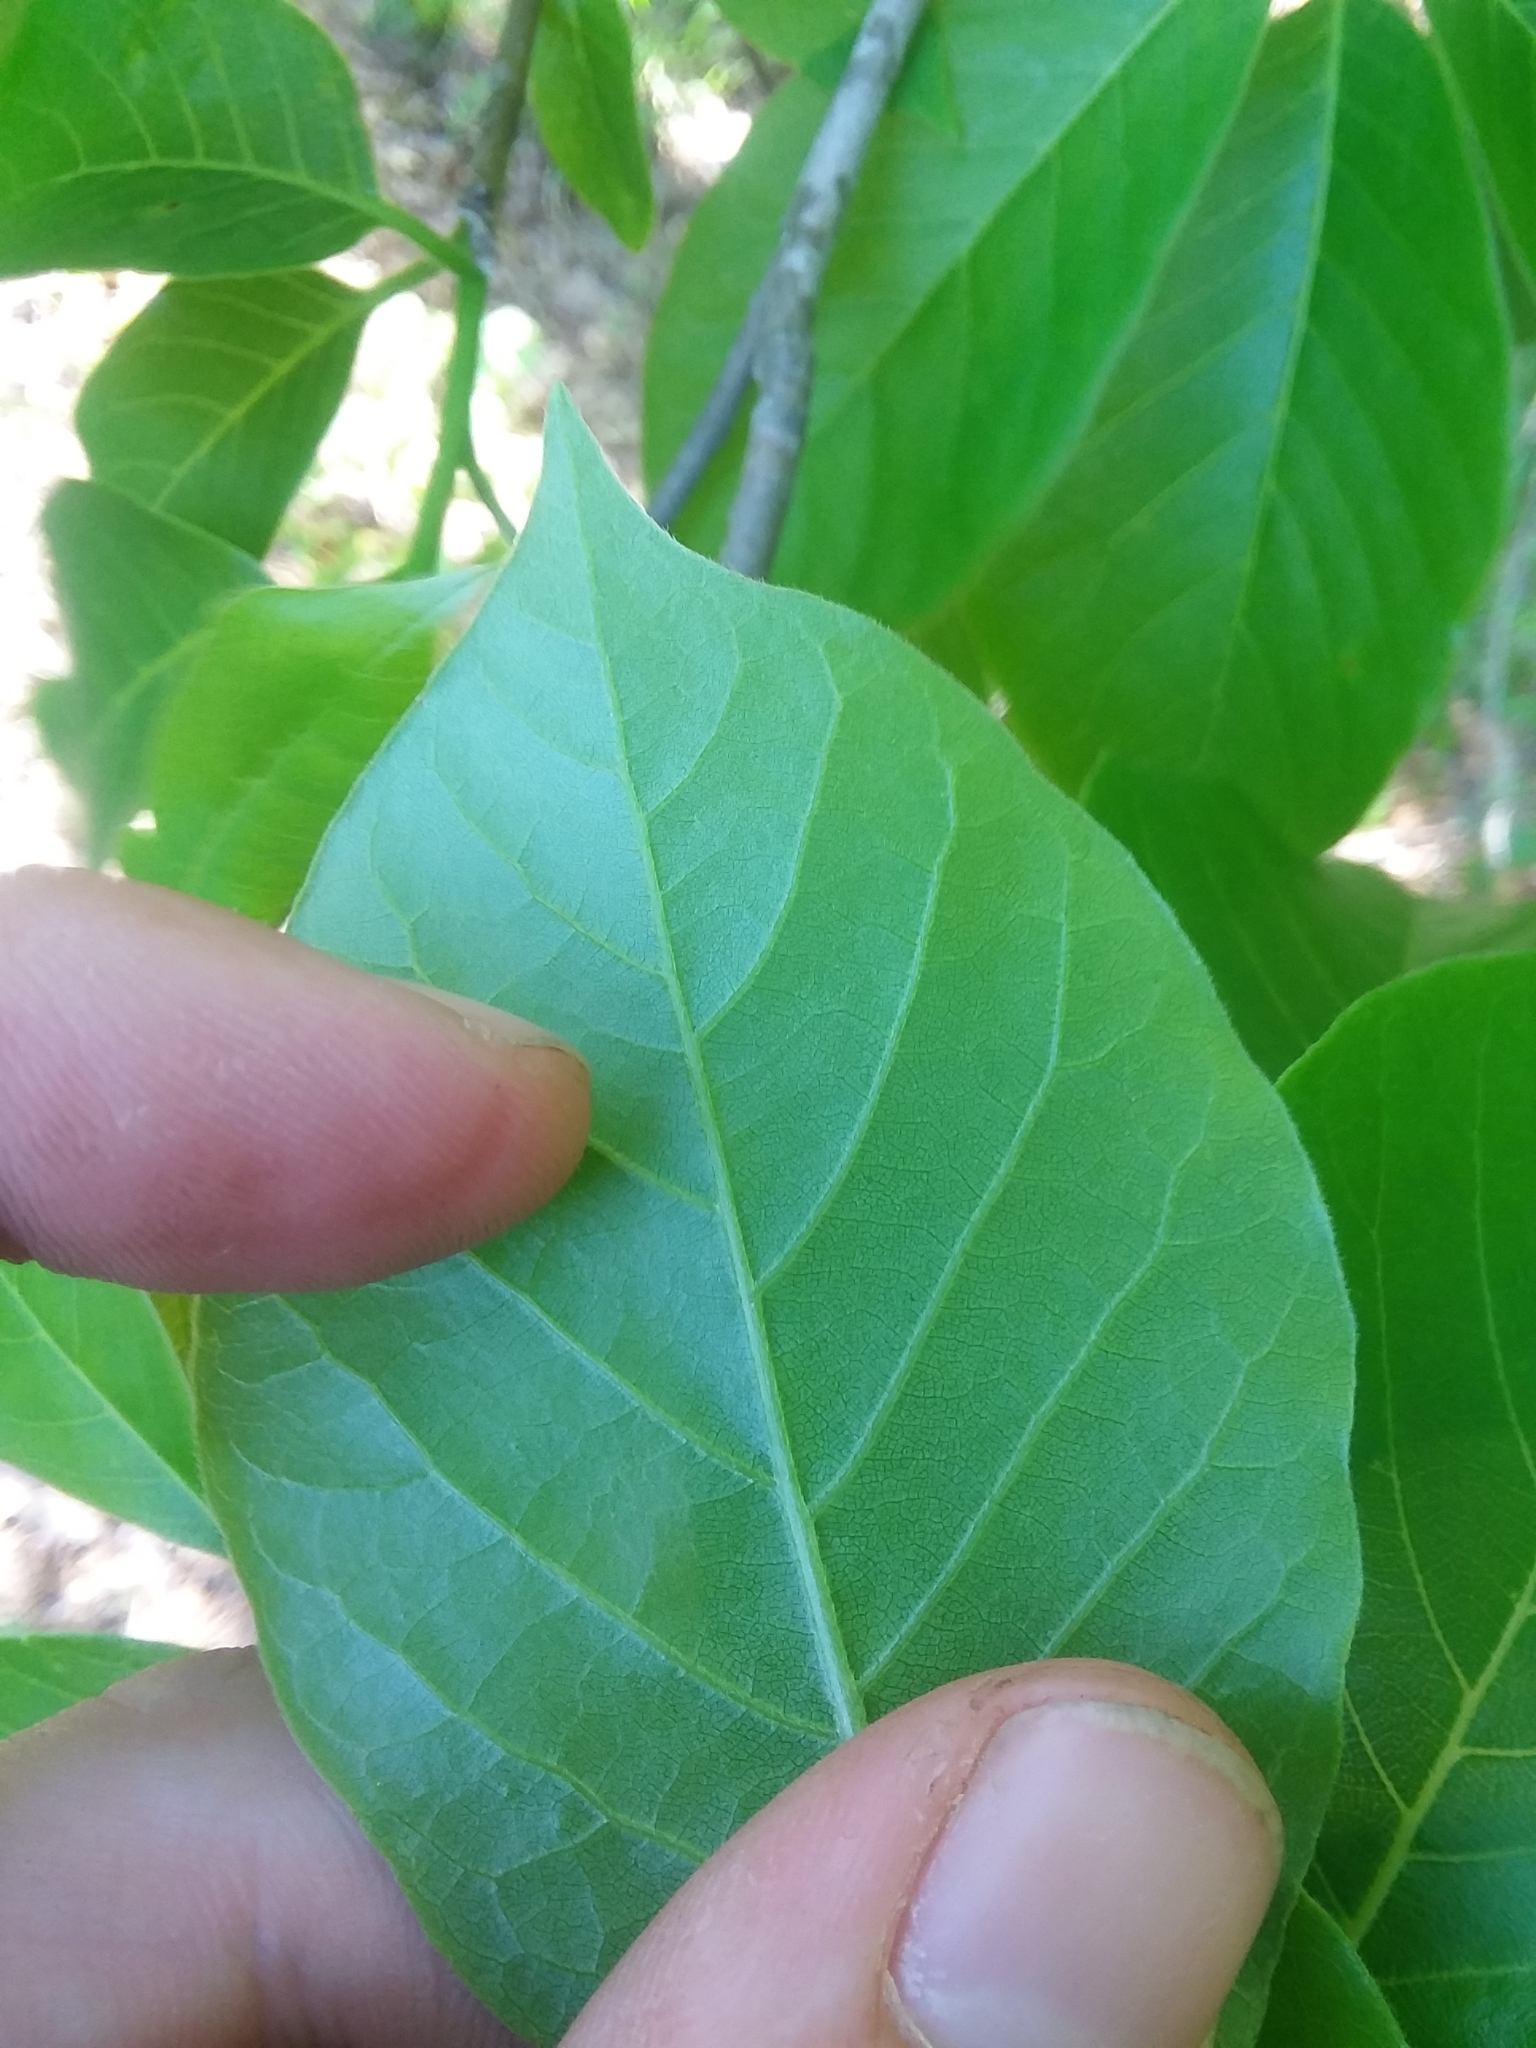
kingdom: Plantae
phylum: Tracheophyta
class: Magnoliopsida
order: Cornales
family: Nyssaceae
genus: Nyssa
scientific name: Nyssa sylvatica
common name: Black tupelo
